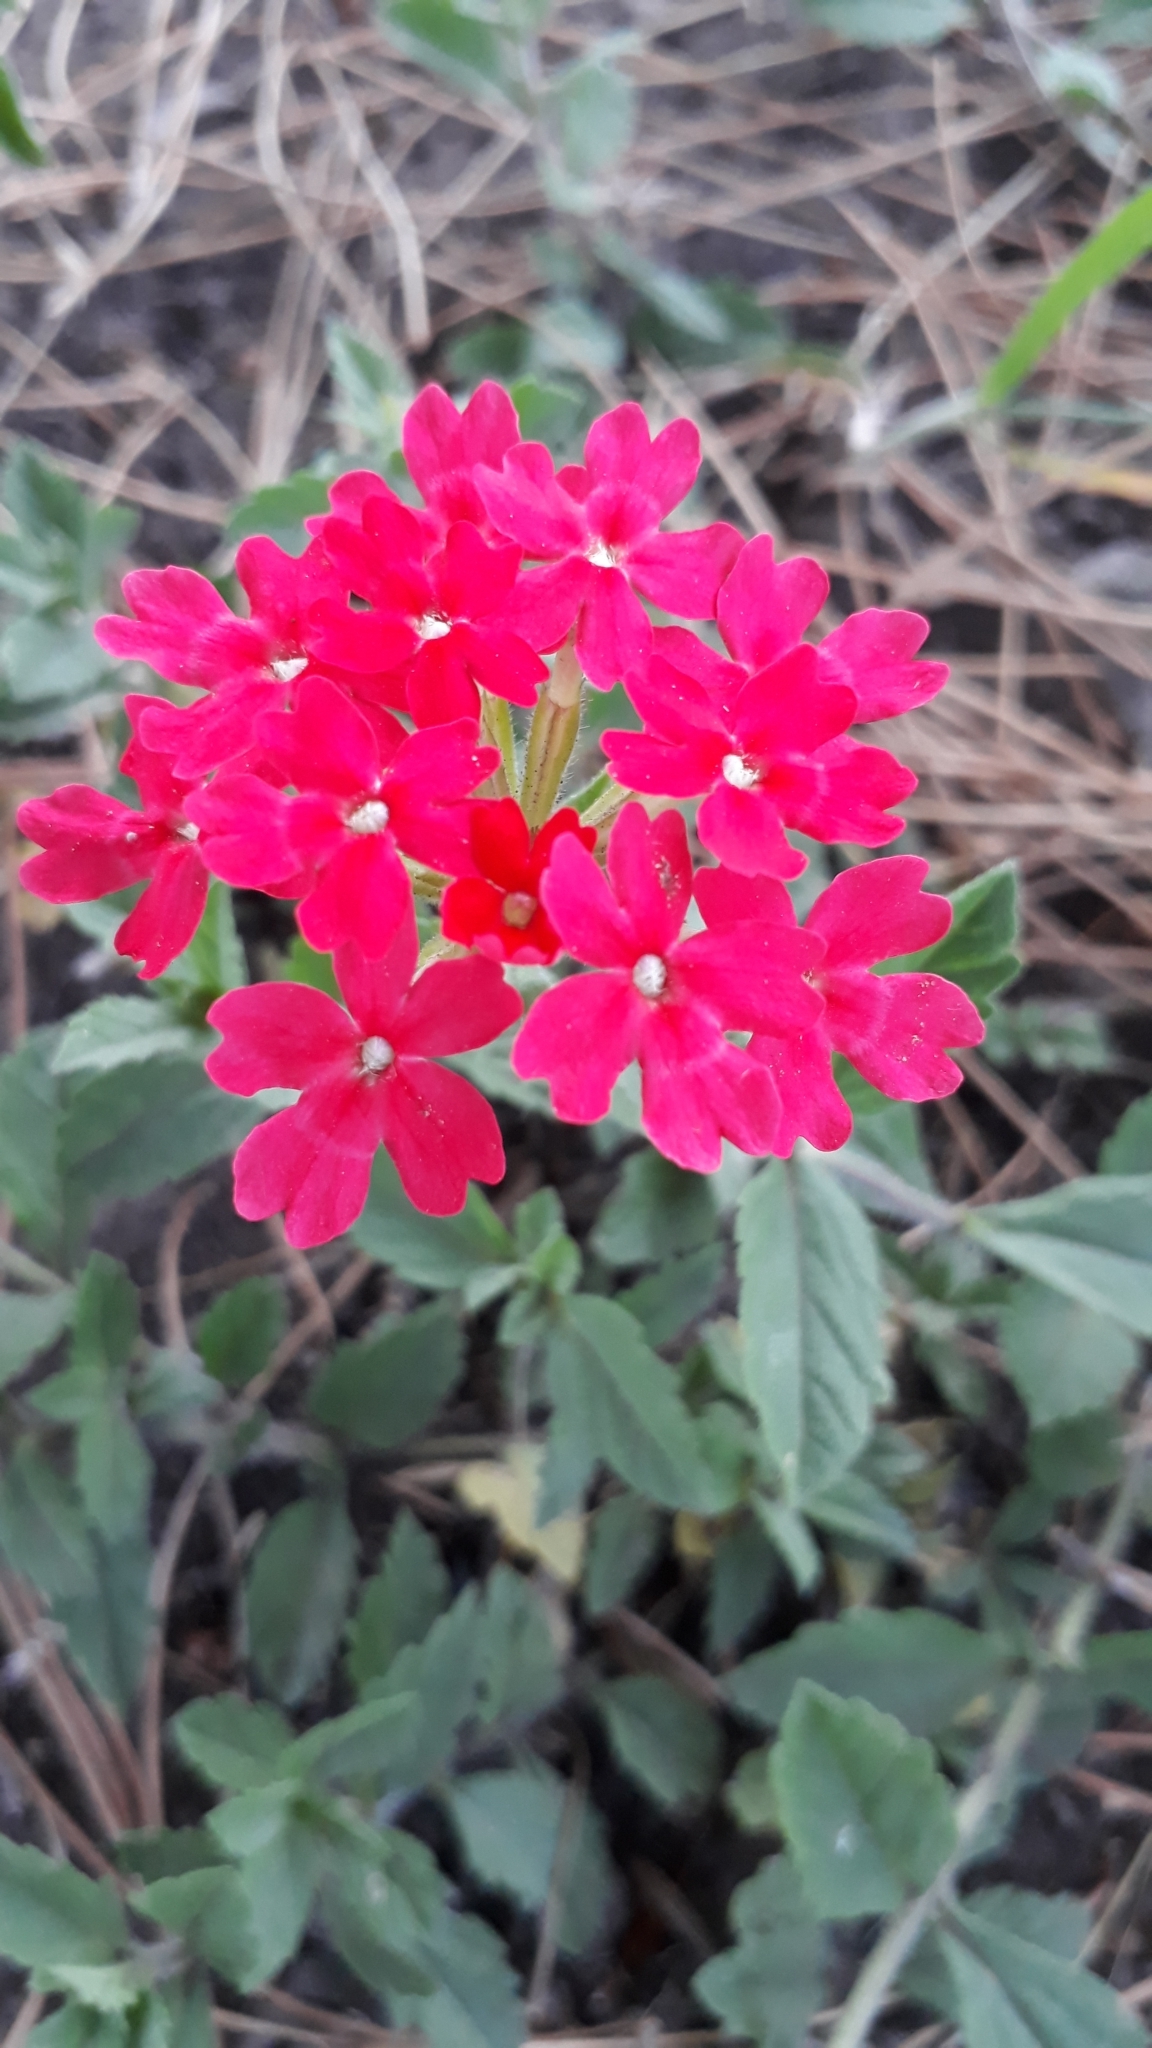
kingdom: Plantae
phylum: Tracheophyta
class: Magnoliopsida
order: Lamiales
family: Verbenaceae
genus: Verbena
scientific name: Verbena peruviana
